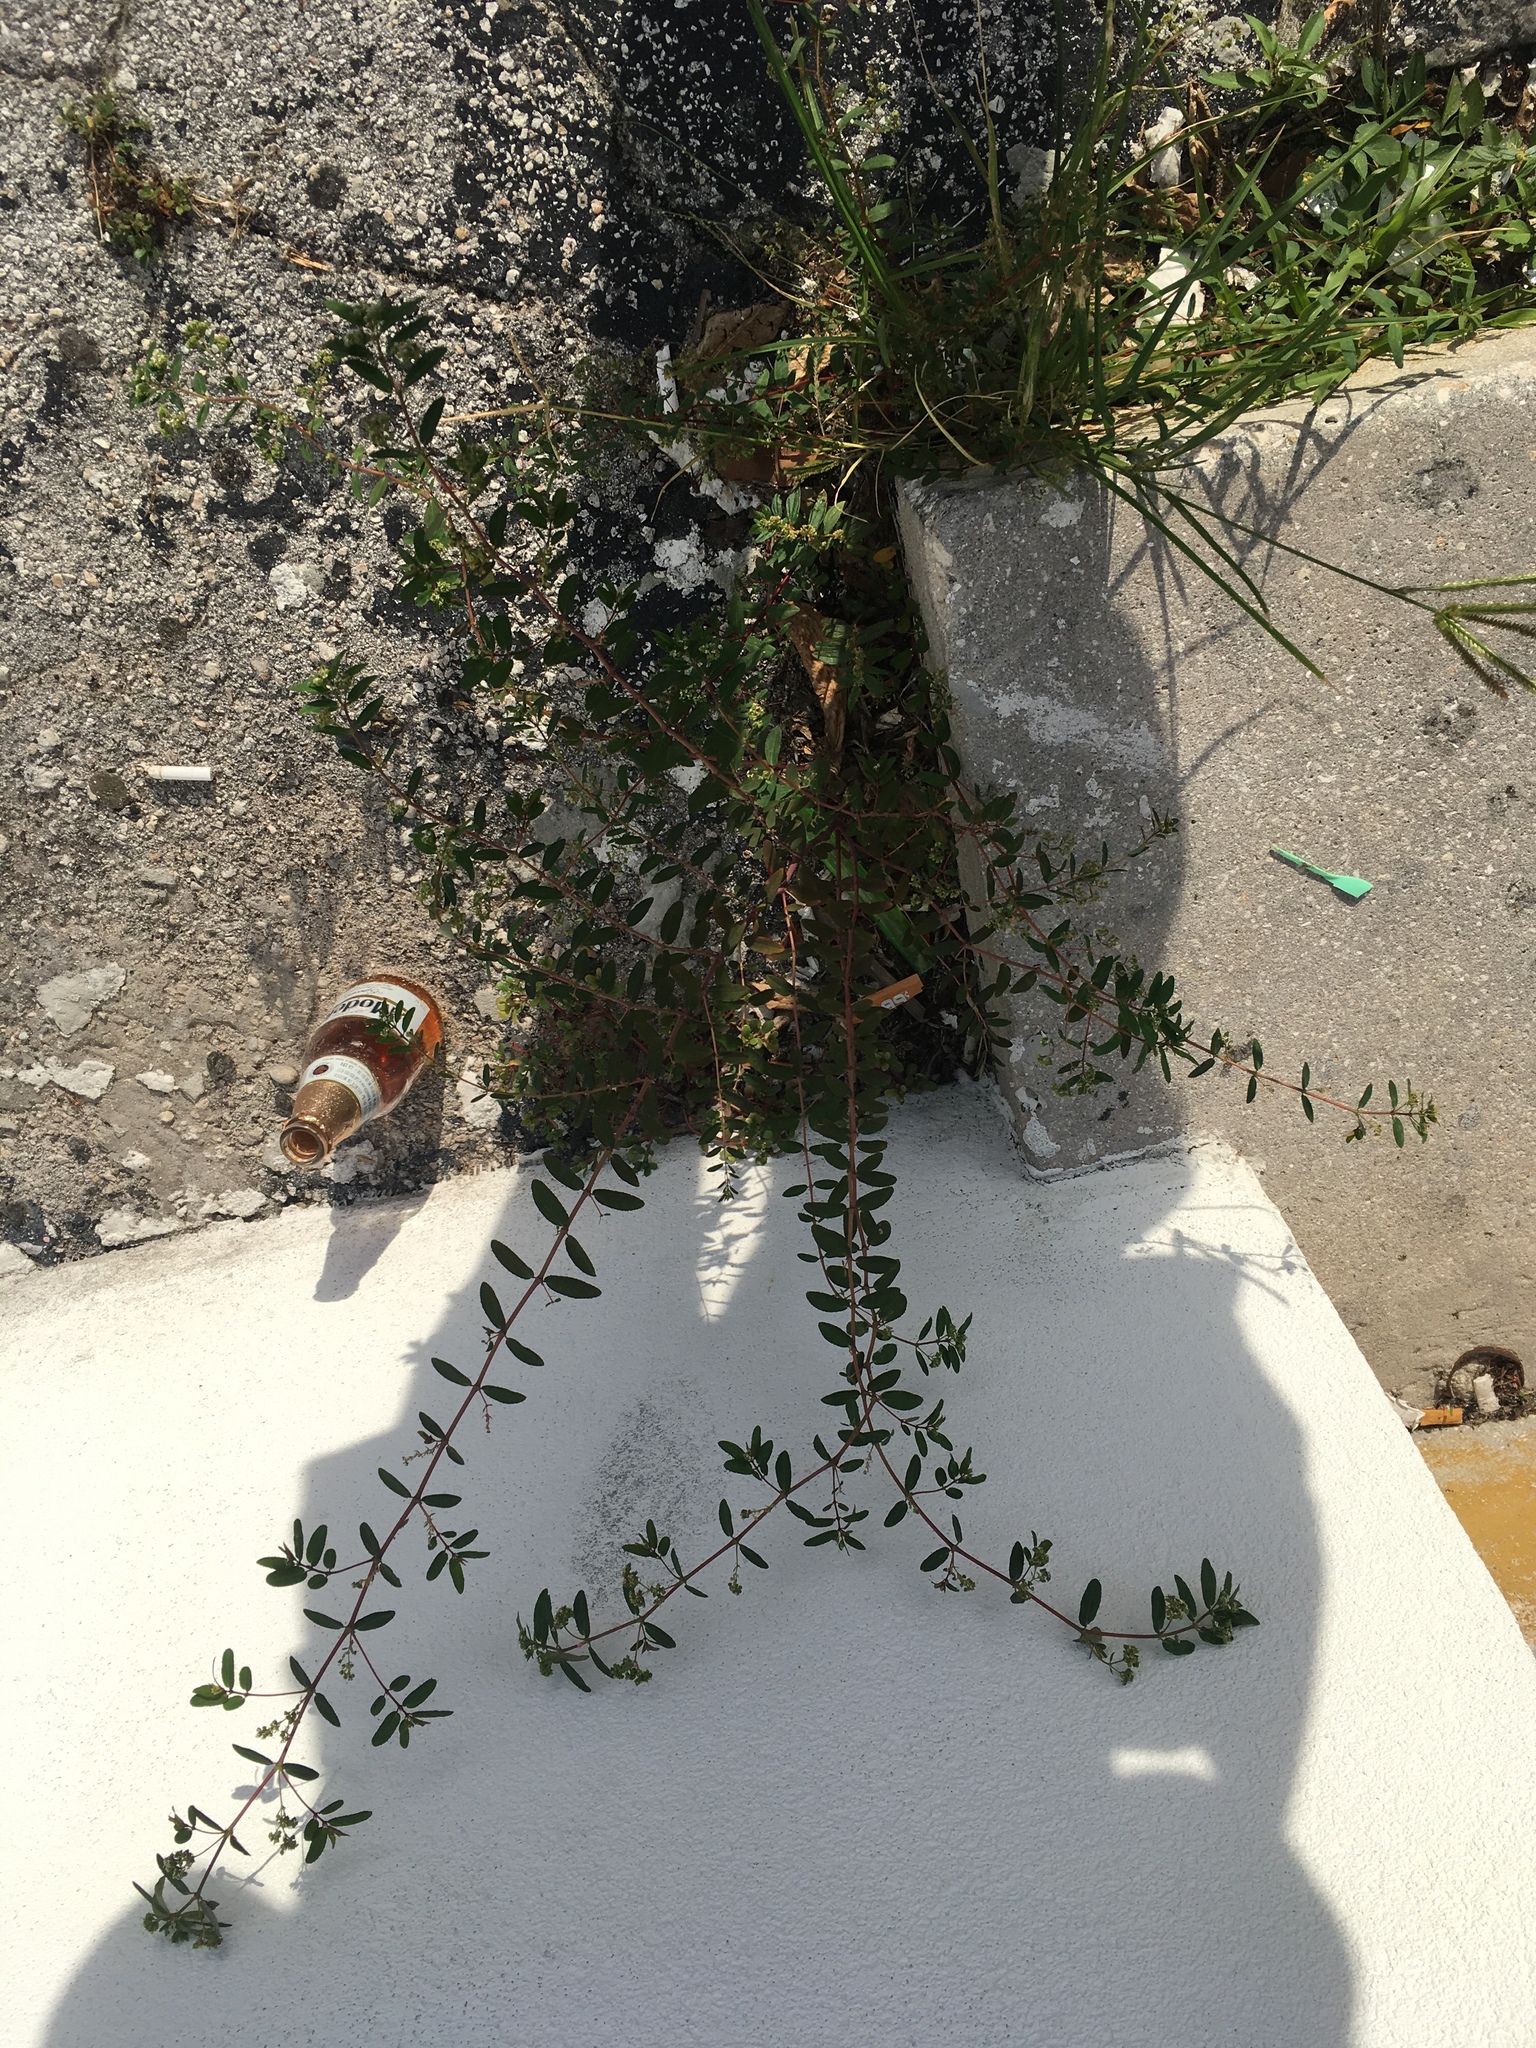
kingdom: Plantae
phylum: Tracheophyta
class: Magnoliopsida
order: Malpighiales
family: Euphorbiaceae
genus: Euphorbia
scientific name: Euphorbia hypericifolia
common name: Graceful sandmat
